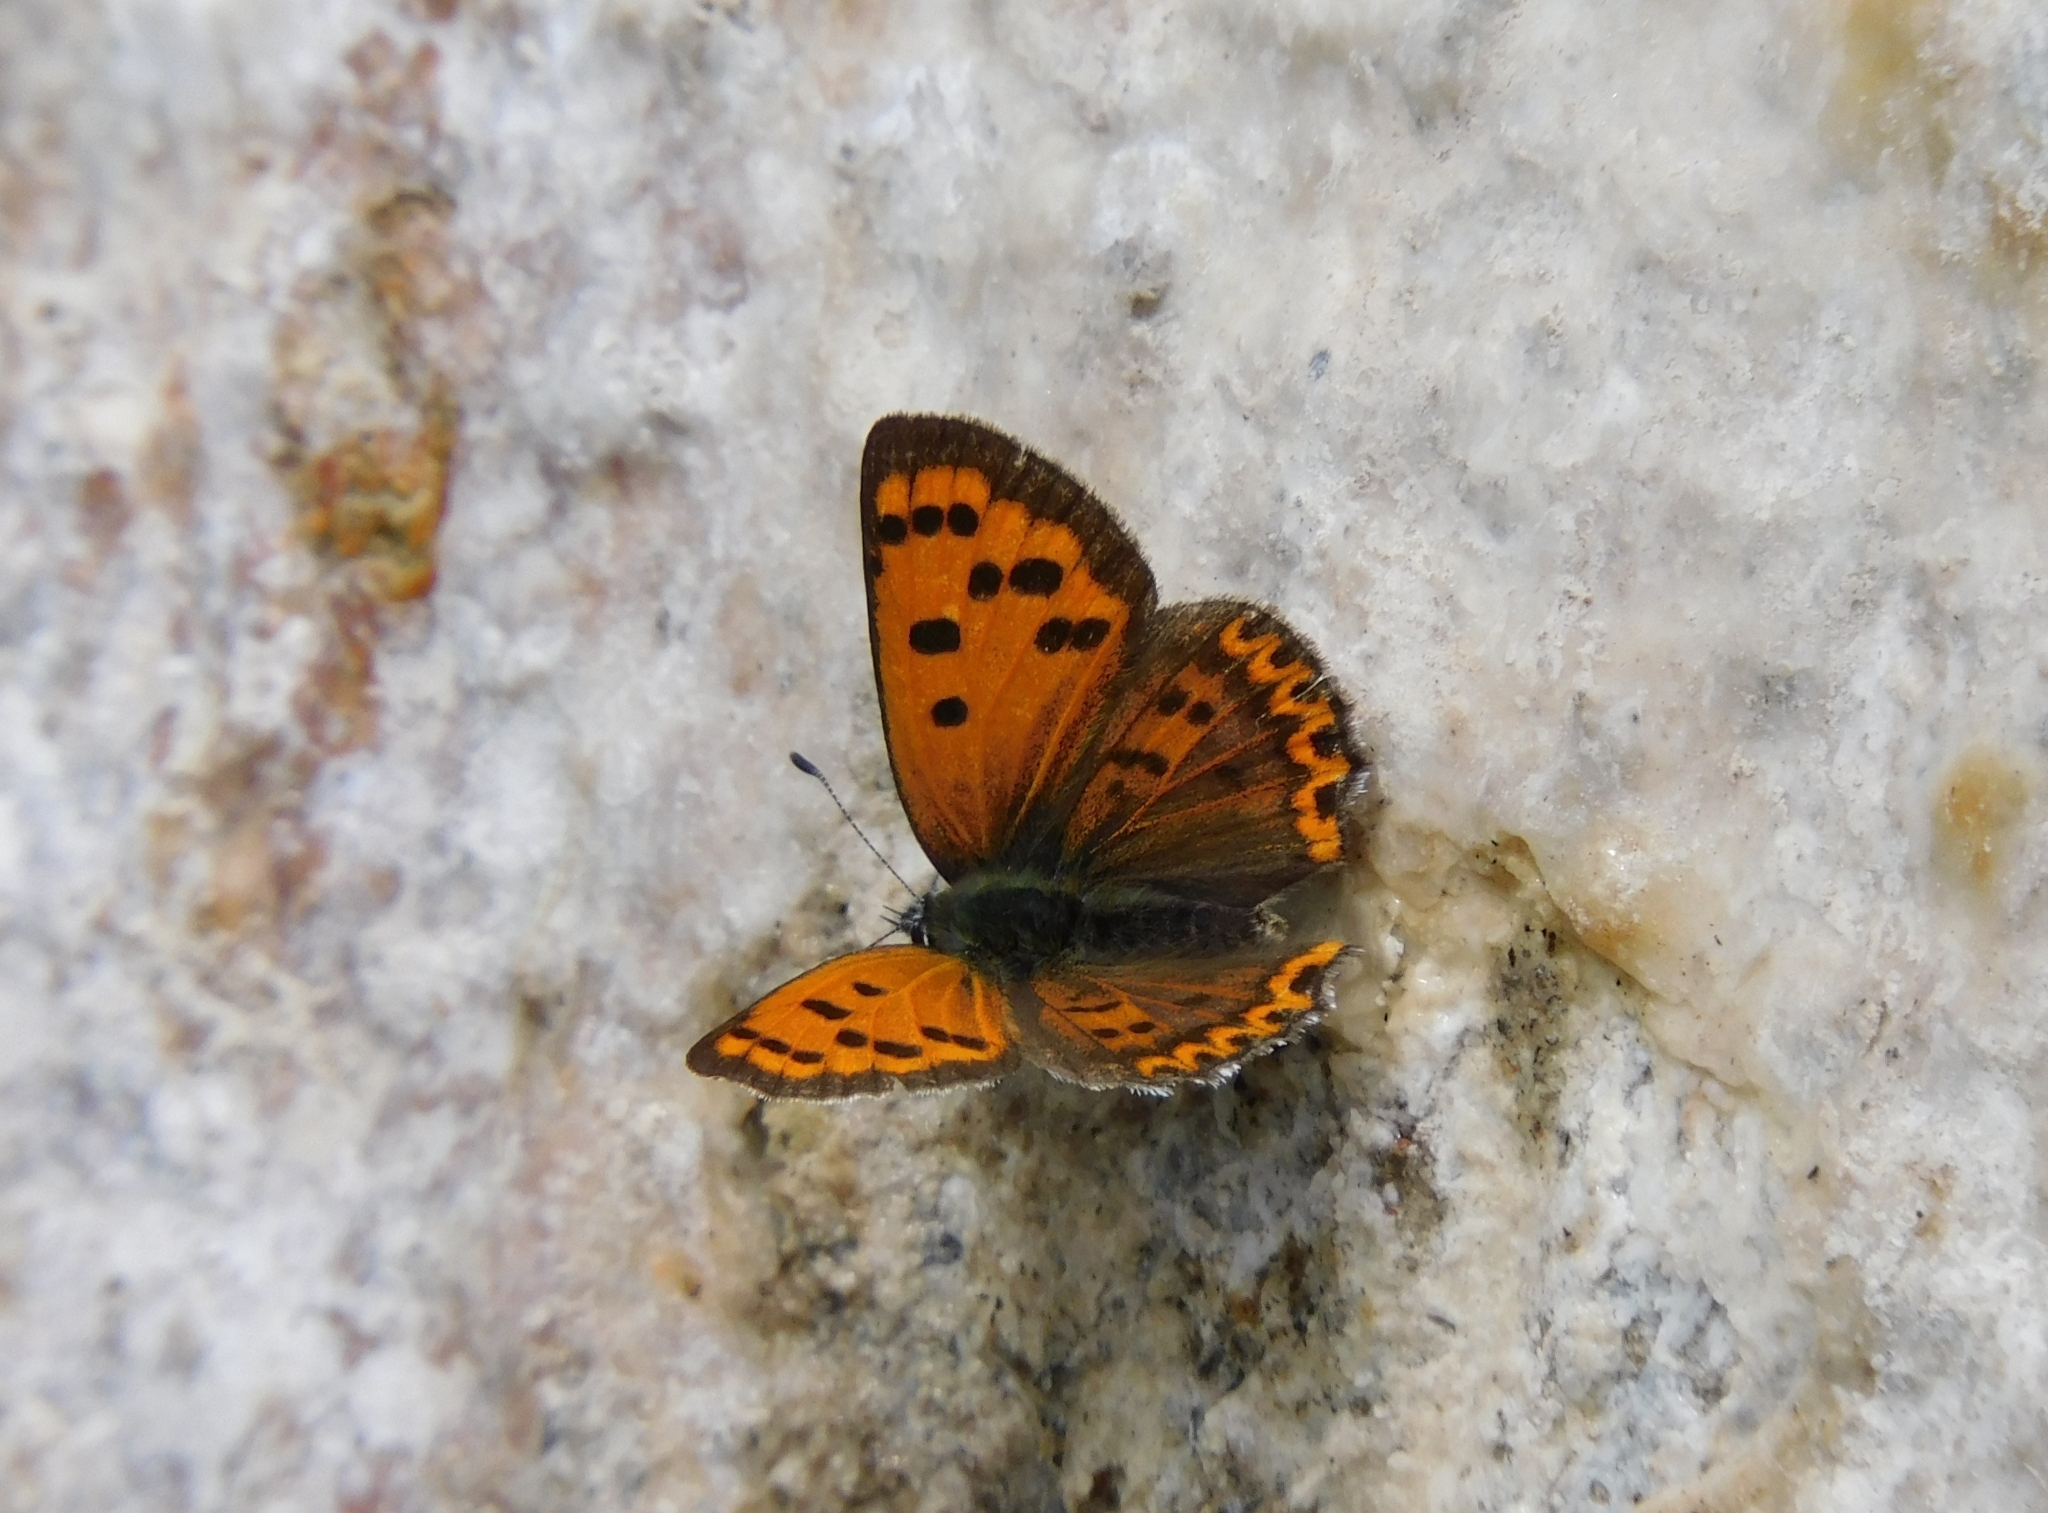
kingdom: Animalia
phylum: Arthropoda
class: Insecta
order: Lepidoptera
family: Lycaenidae
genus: Lycaena
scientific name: Lycaena panava
